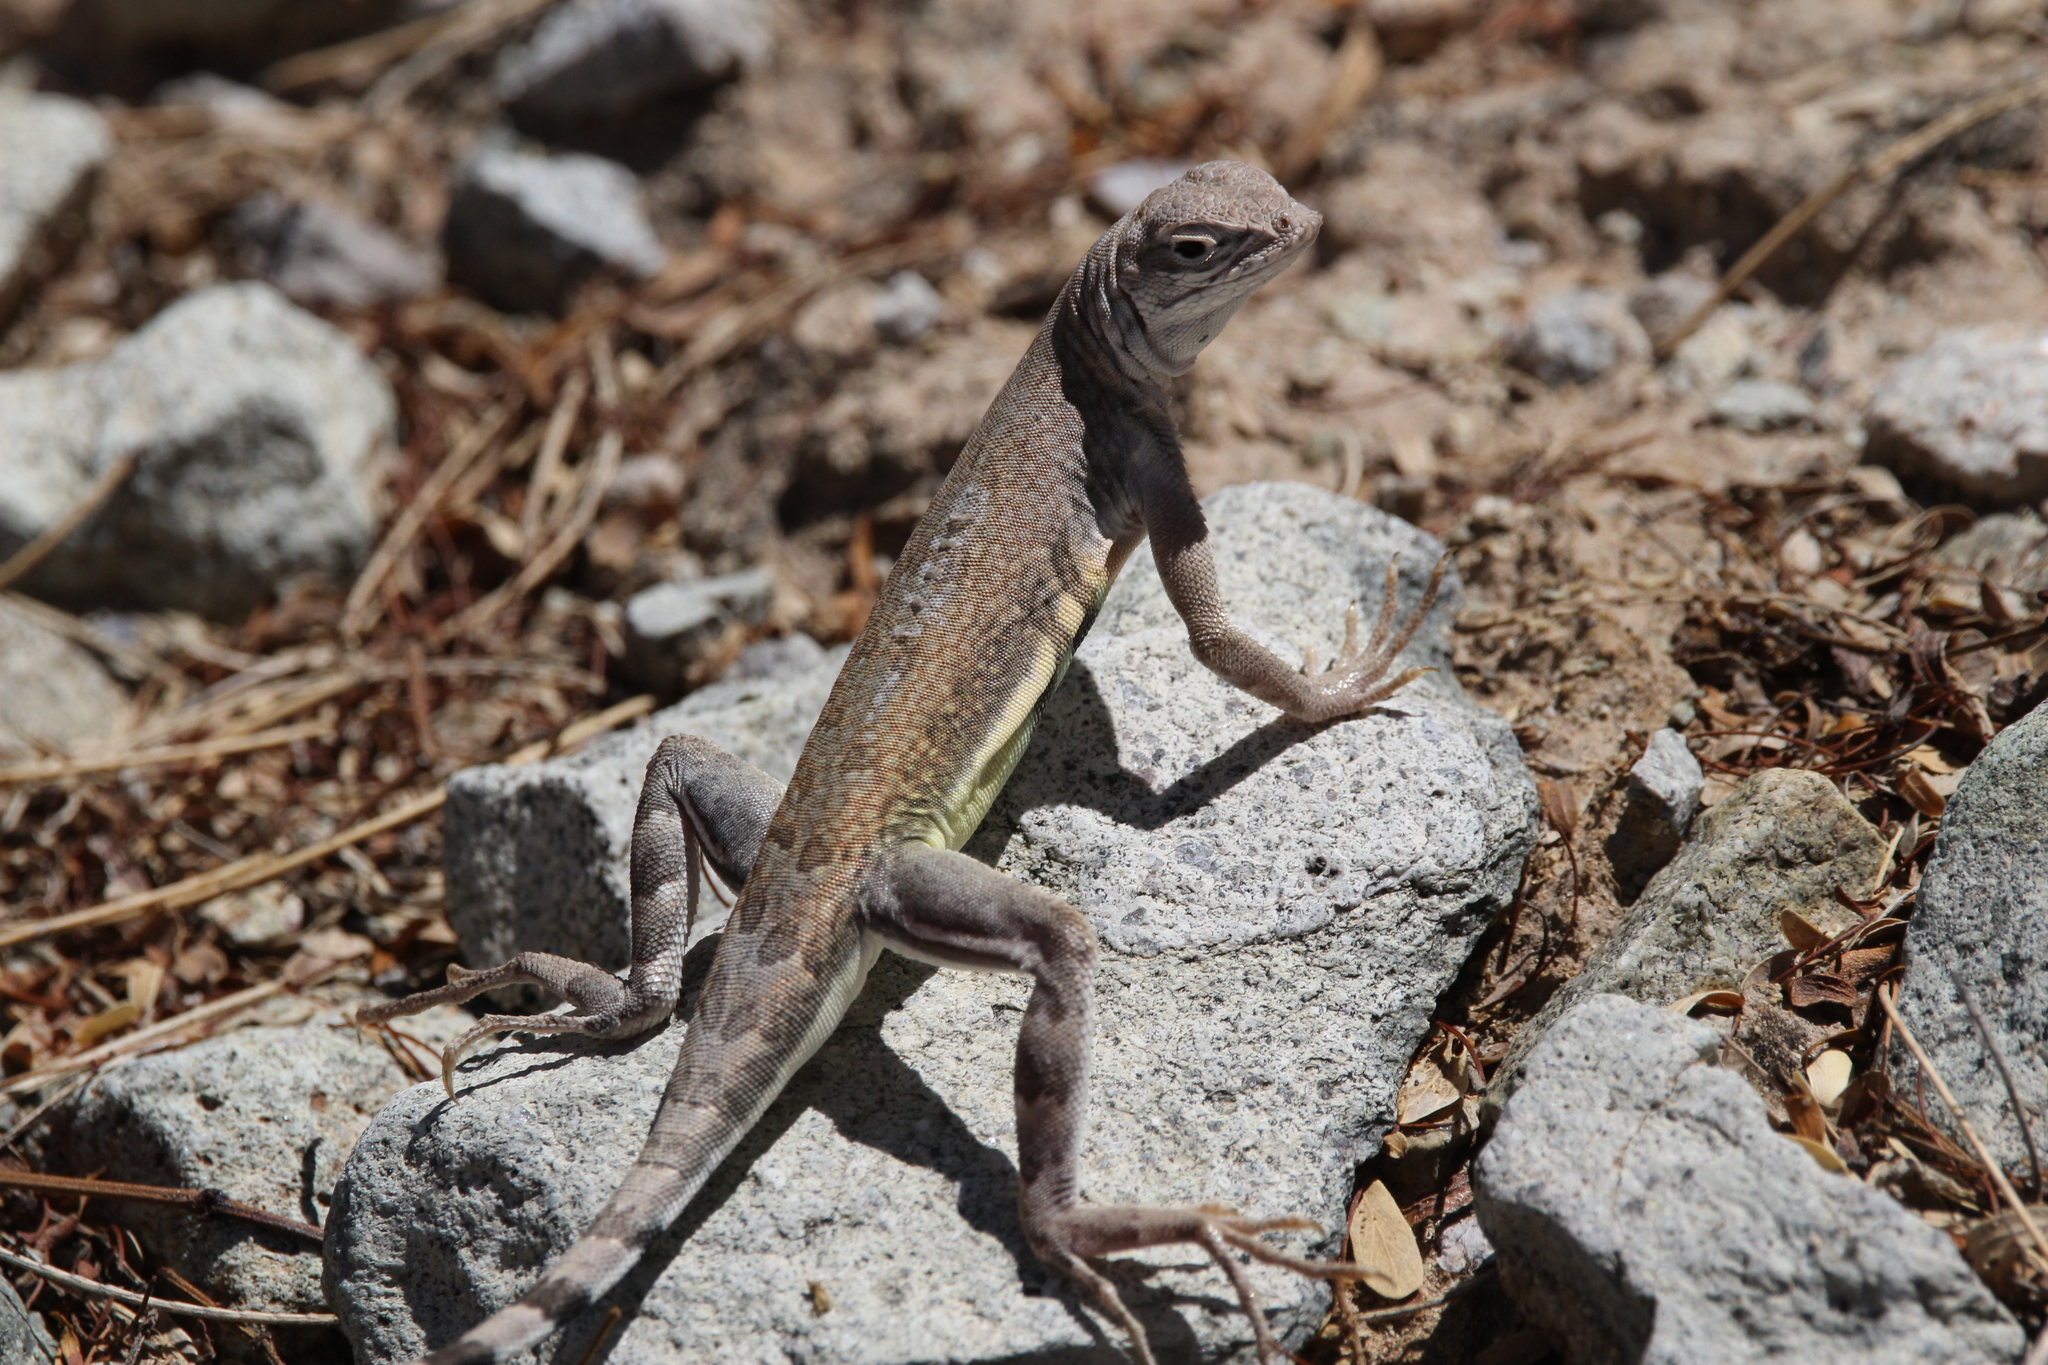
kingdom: Animalia
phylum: Chordata
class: Squamata
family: Phrynosomatidae
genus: Callisaurus
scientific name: Callisaurus draconoides
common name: Zebra-tailed lizard
